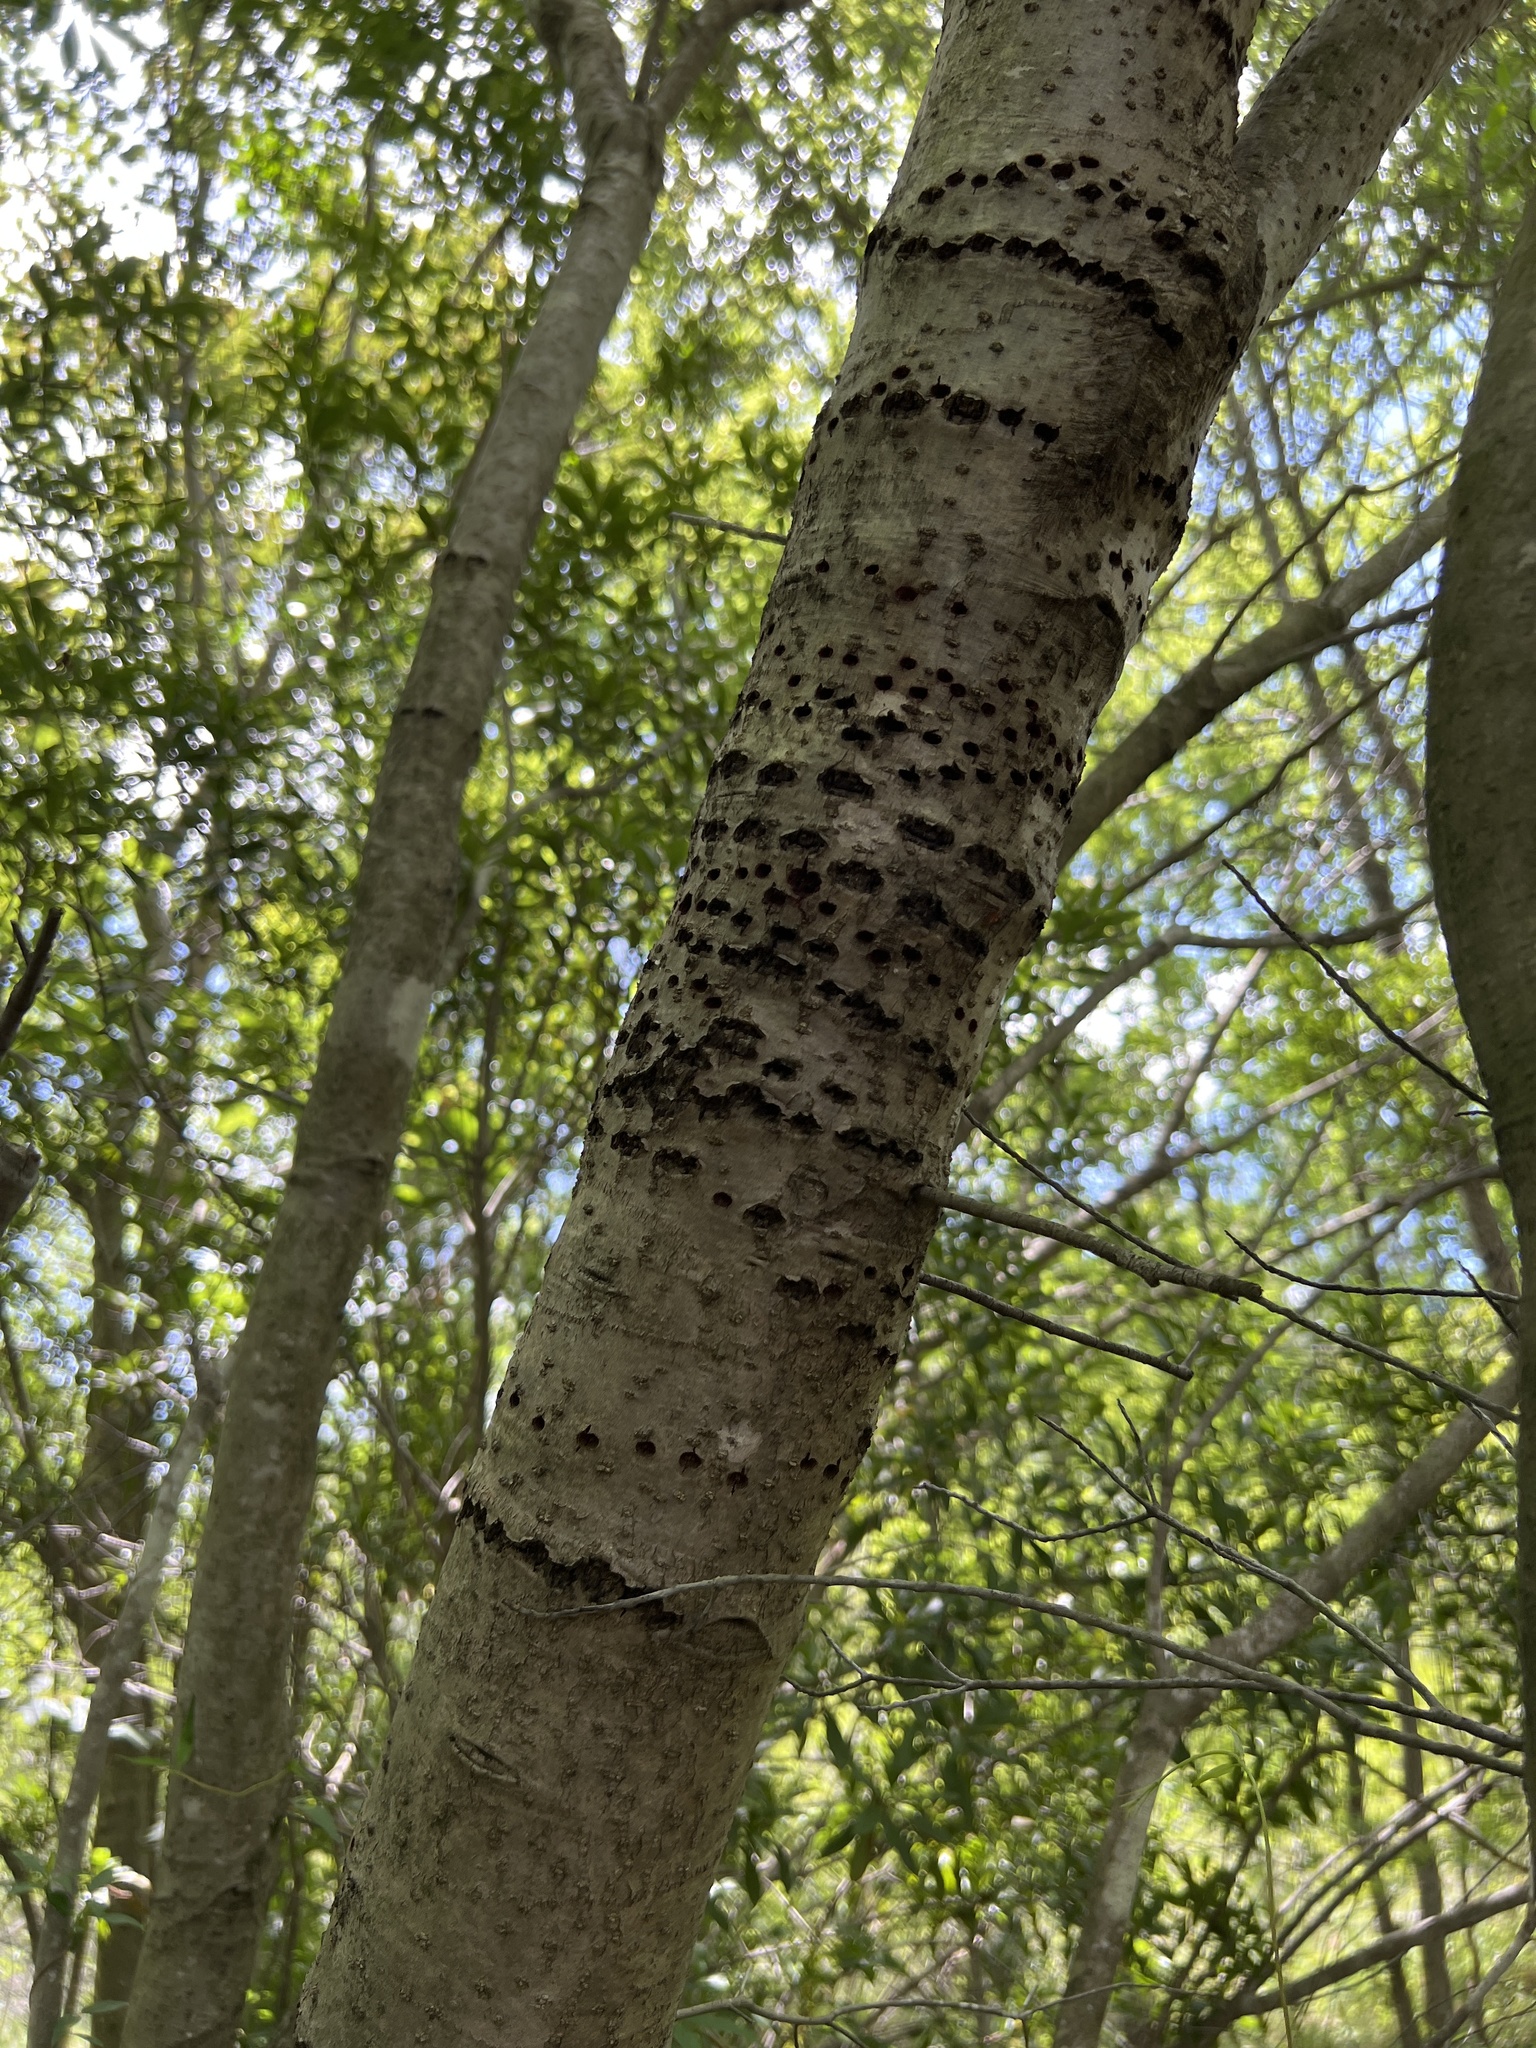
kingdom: Animalia
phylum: Chordata
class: Aves
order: Piciformes
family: Picidae
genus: Sphyrapicus
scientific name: Sphyrapicus varius
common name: Yellow-bellied sapsucker
